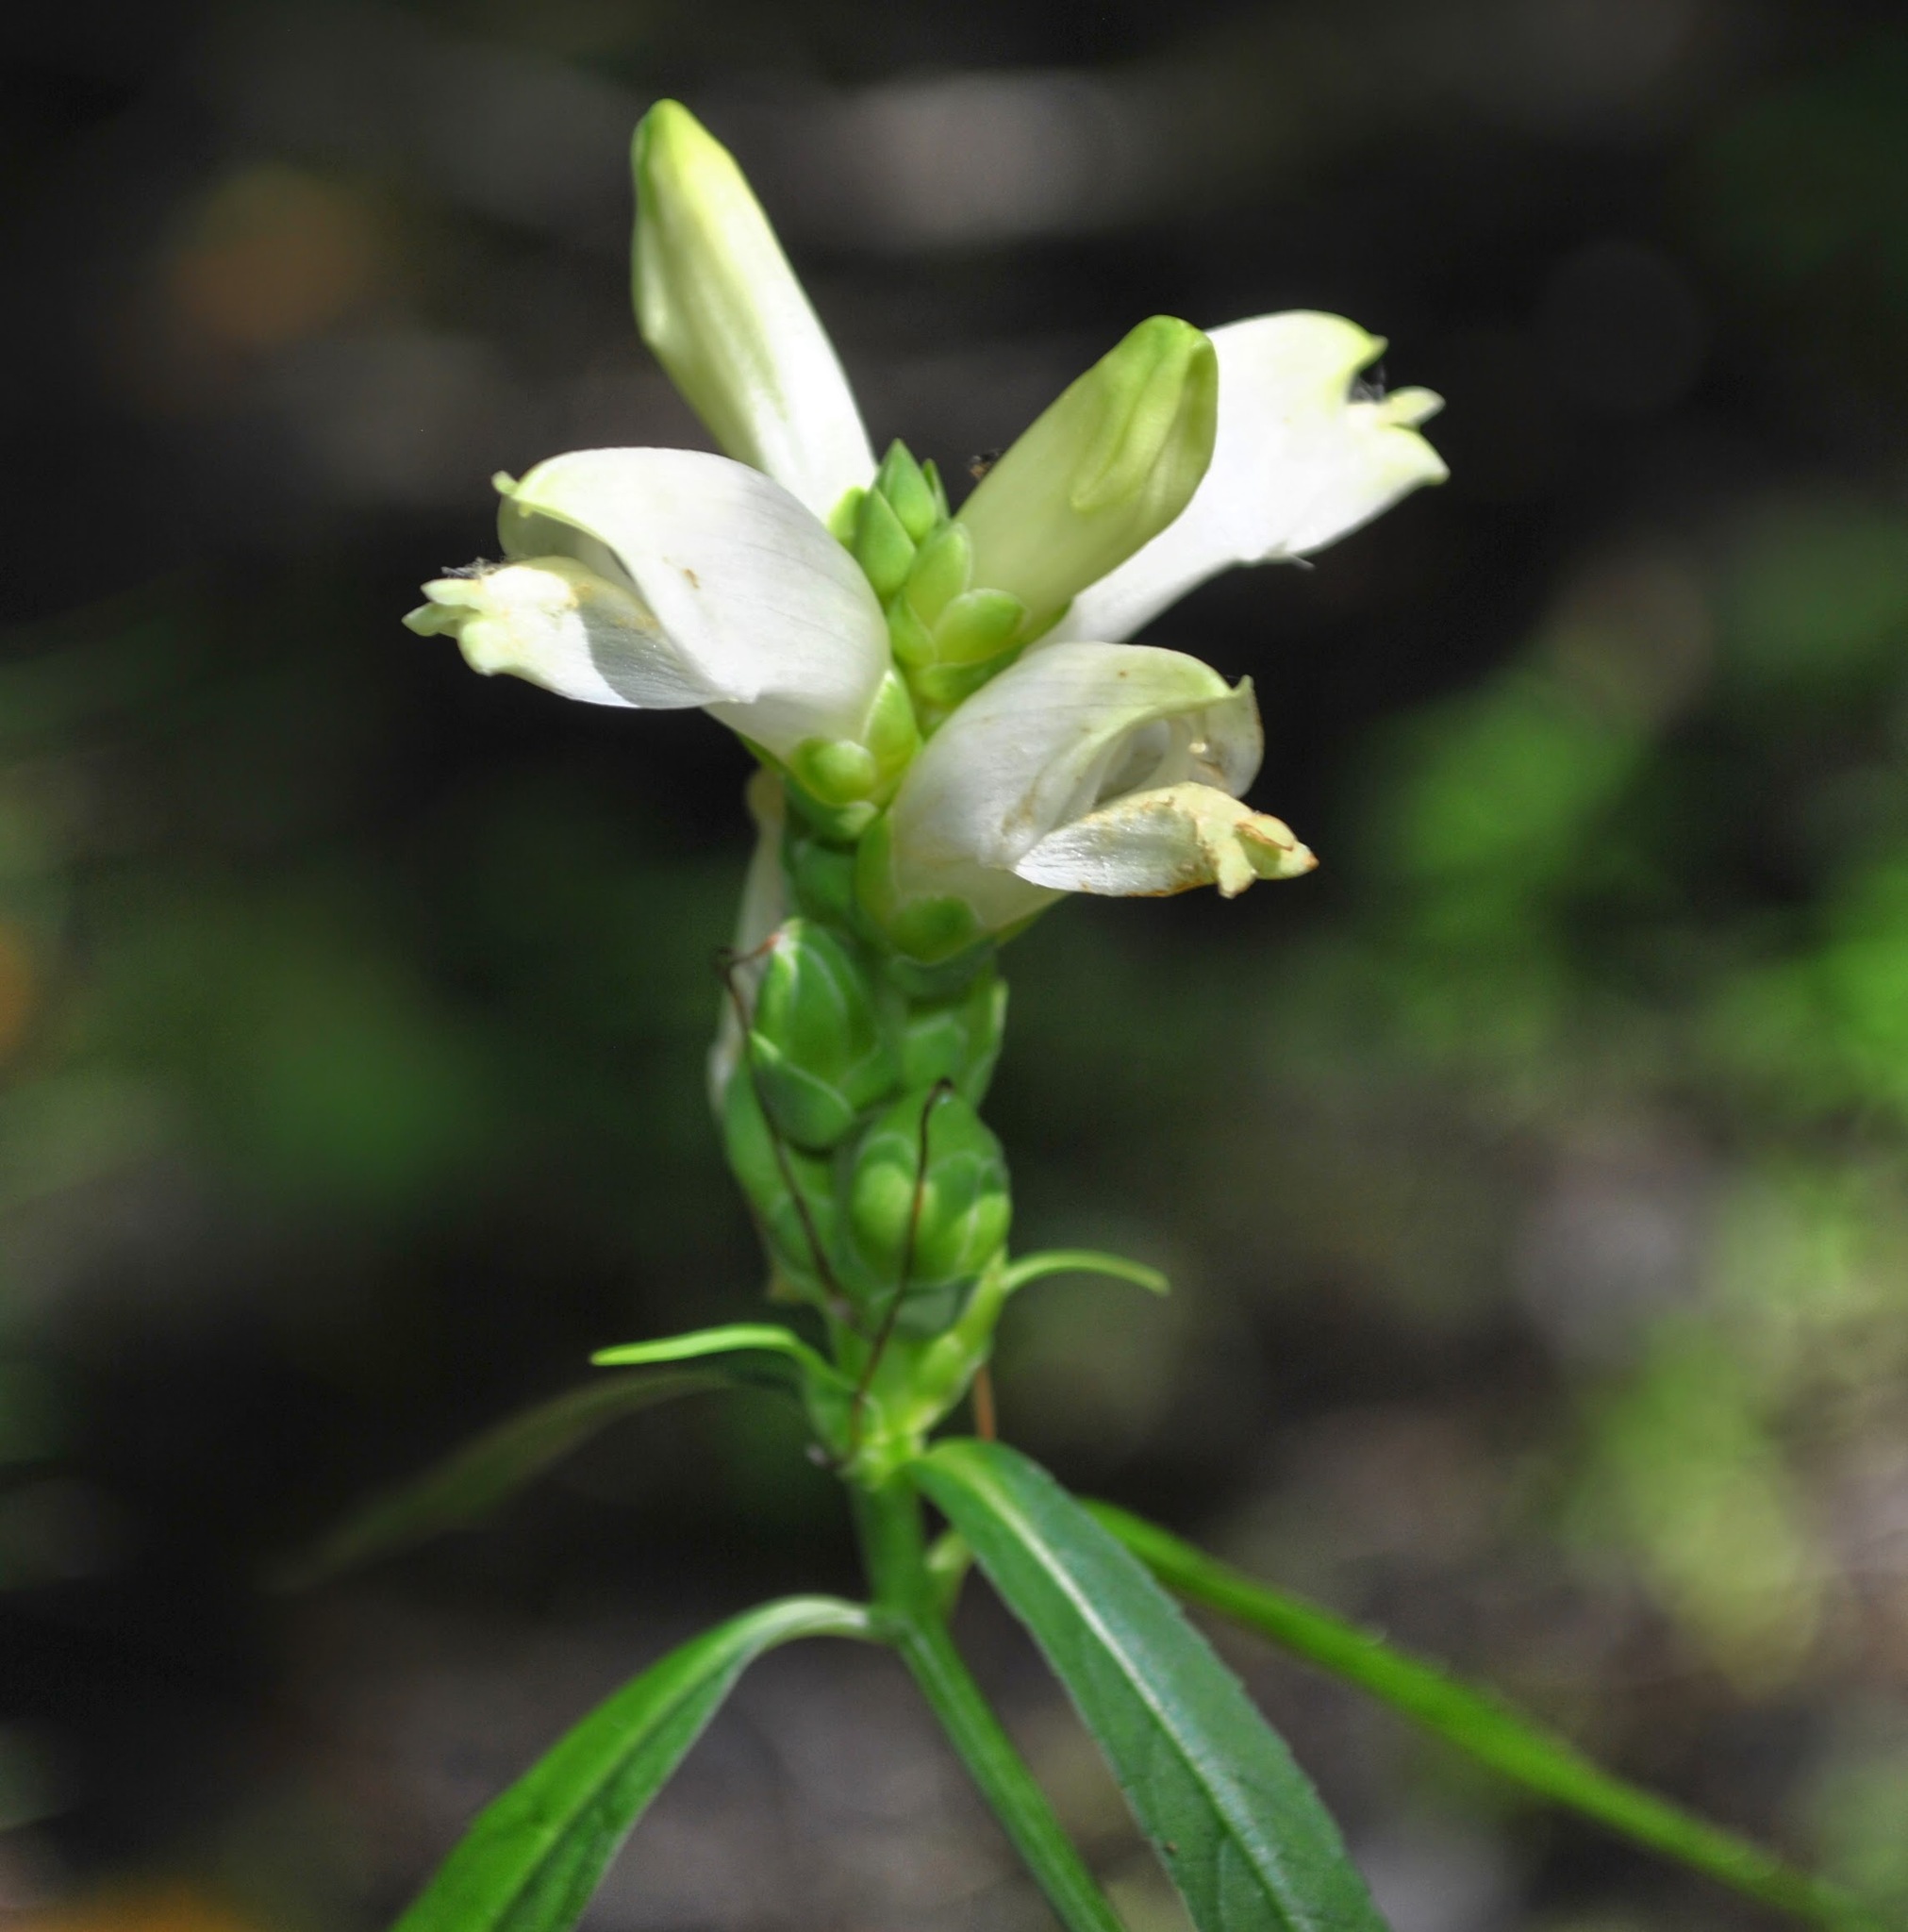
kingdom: Plantae
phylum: Tracheophyta
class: Magnoliopsida
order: Lamiales
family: Plantaginaceae
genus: Chelone
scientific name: Chelone glabra
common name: Snakehead
